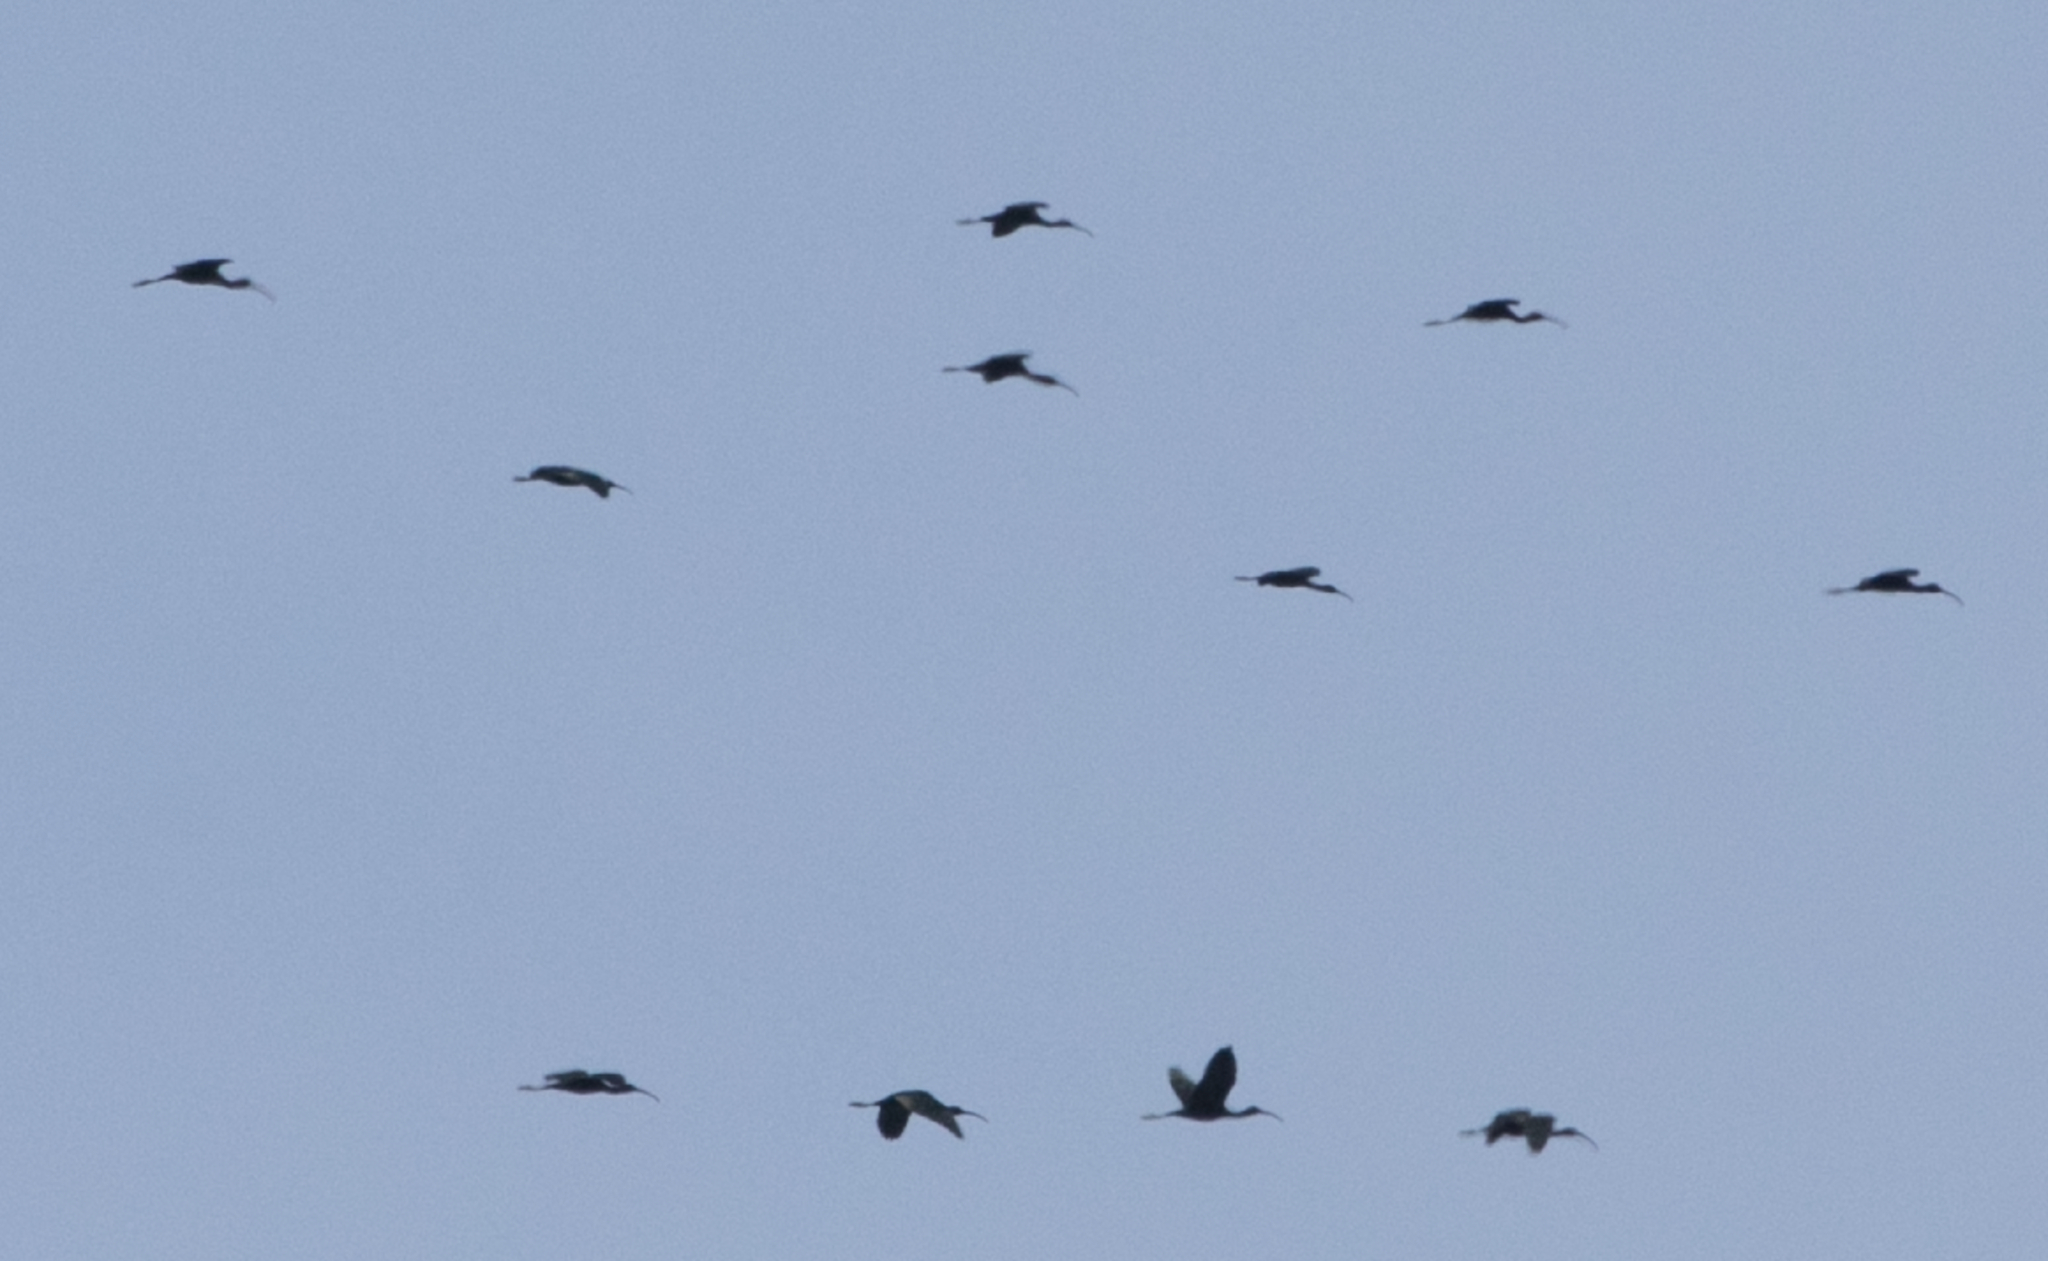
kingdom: Animalia
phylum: Chordata
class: Aves
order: Pelecaniformes
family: Threskiornithidae
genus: Plegadis
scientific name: Plegadis falcinellus
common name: Glossy ibis
